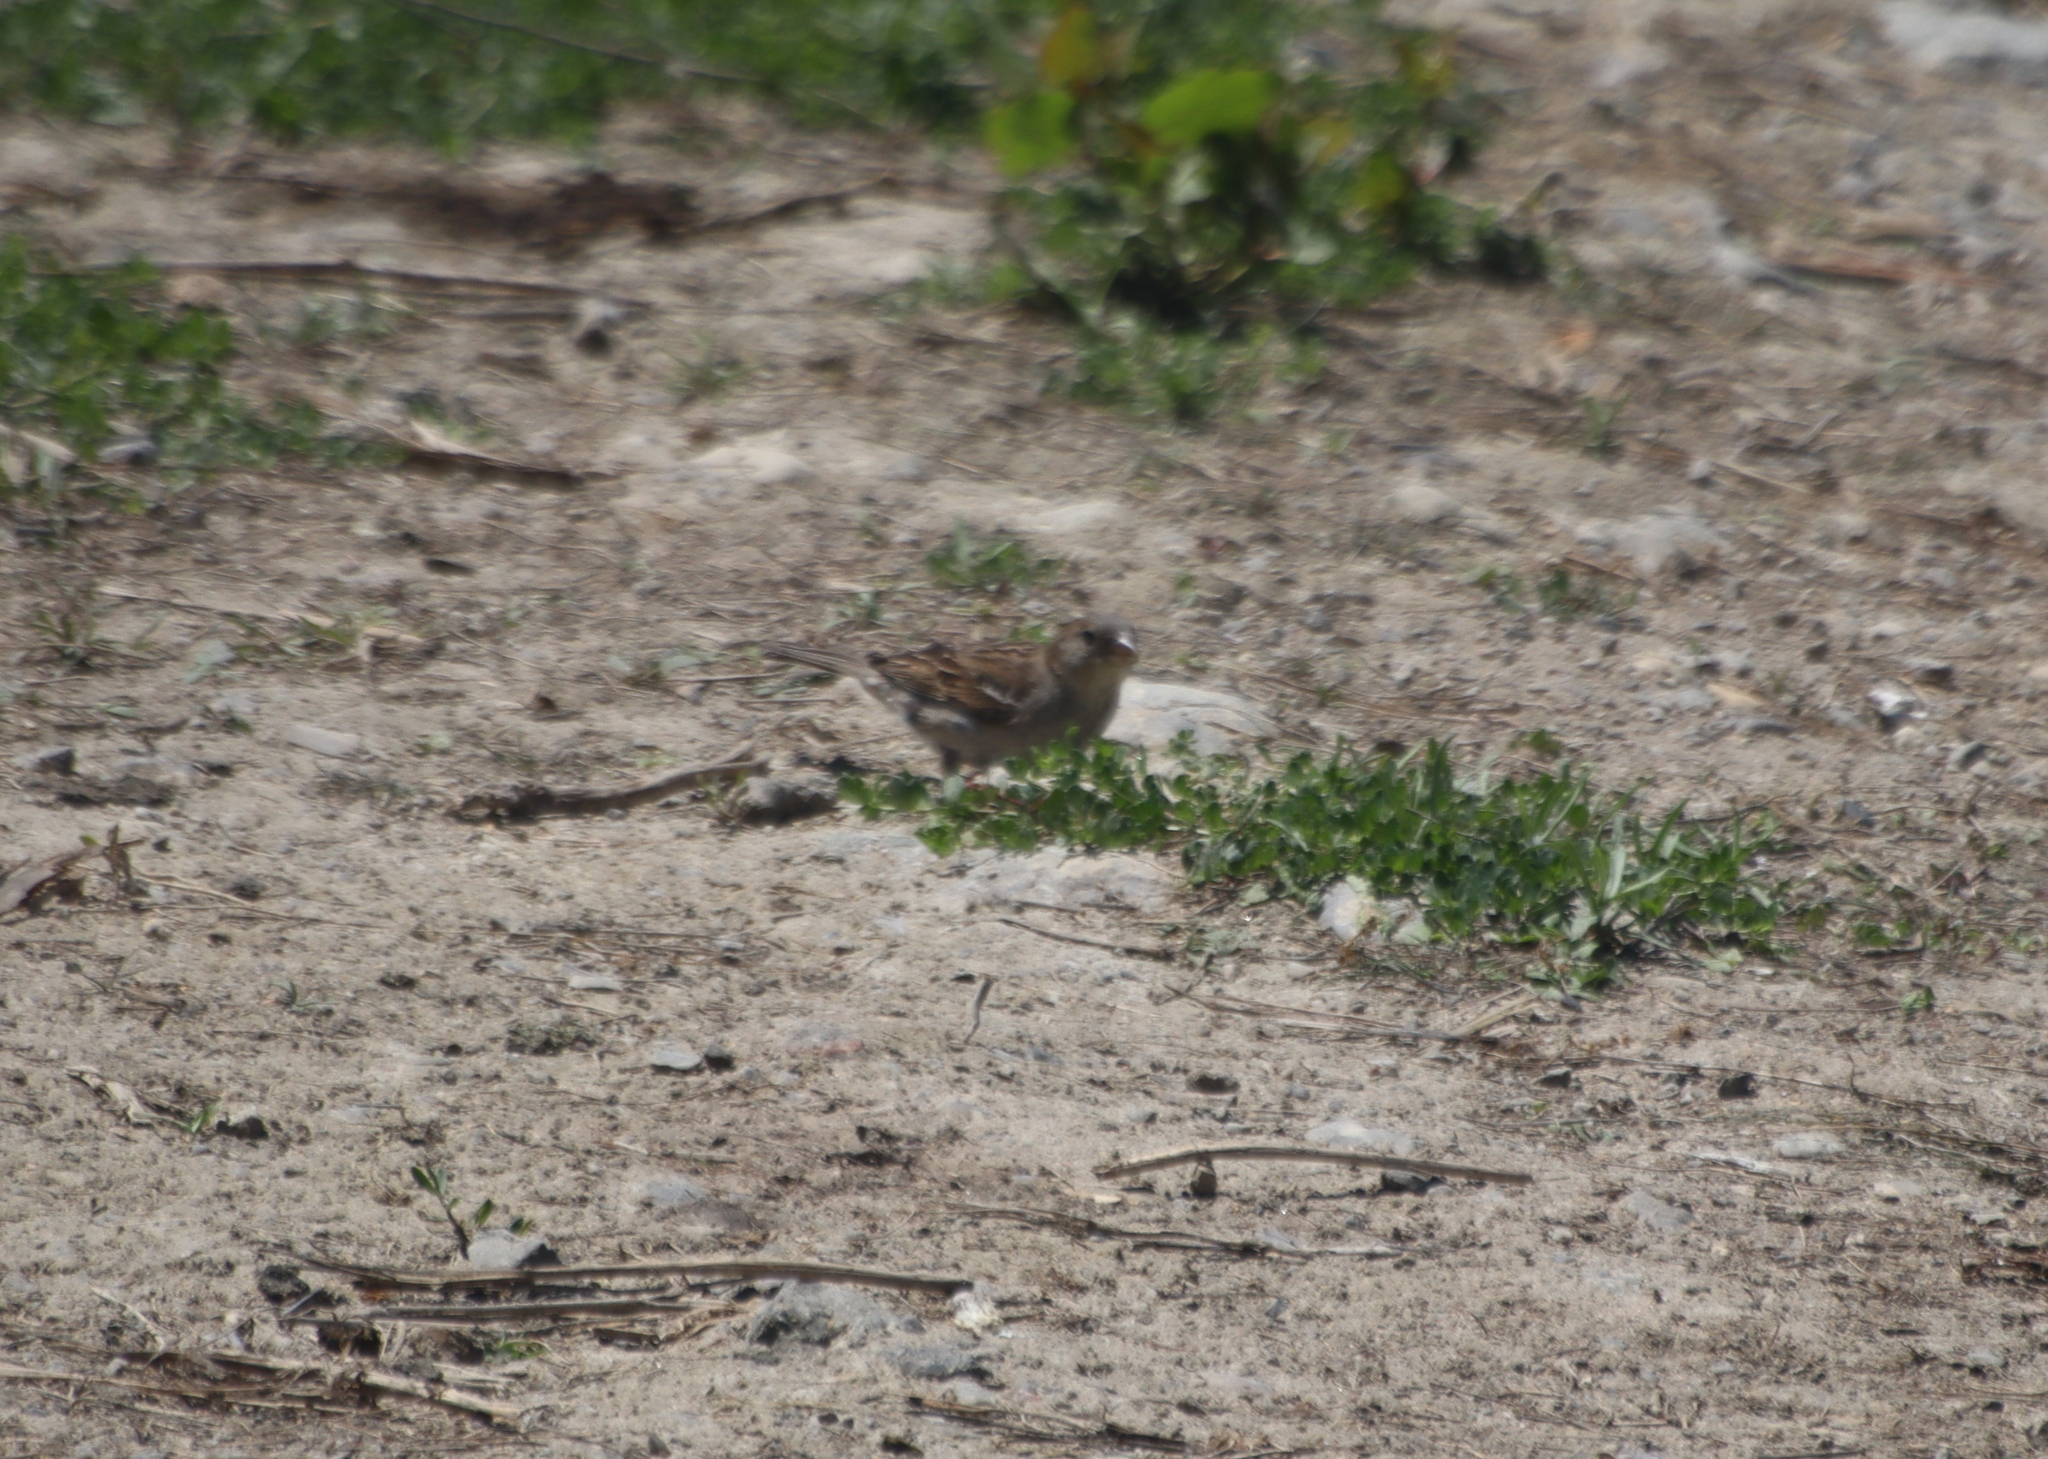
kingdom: Animalia
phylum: Chordata
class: Aves
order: Passeriformes
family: Passeridae
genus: Passer
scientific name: Passer domesticus
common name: House sparrow
